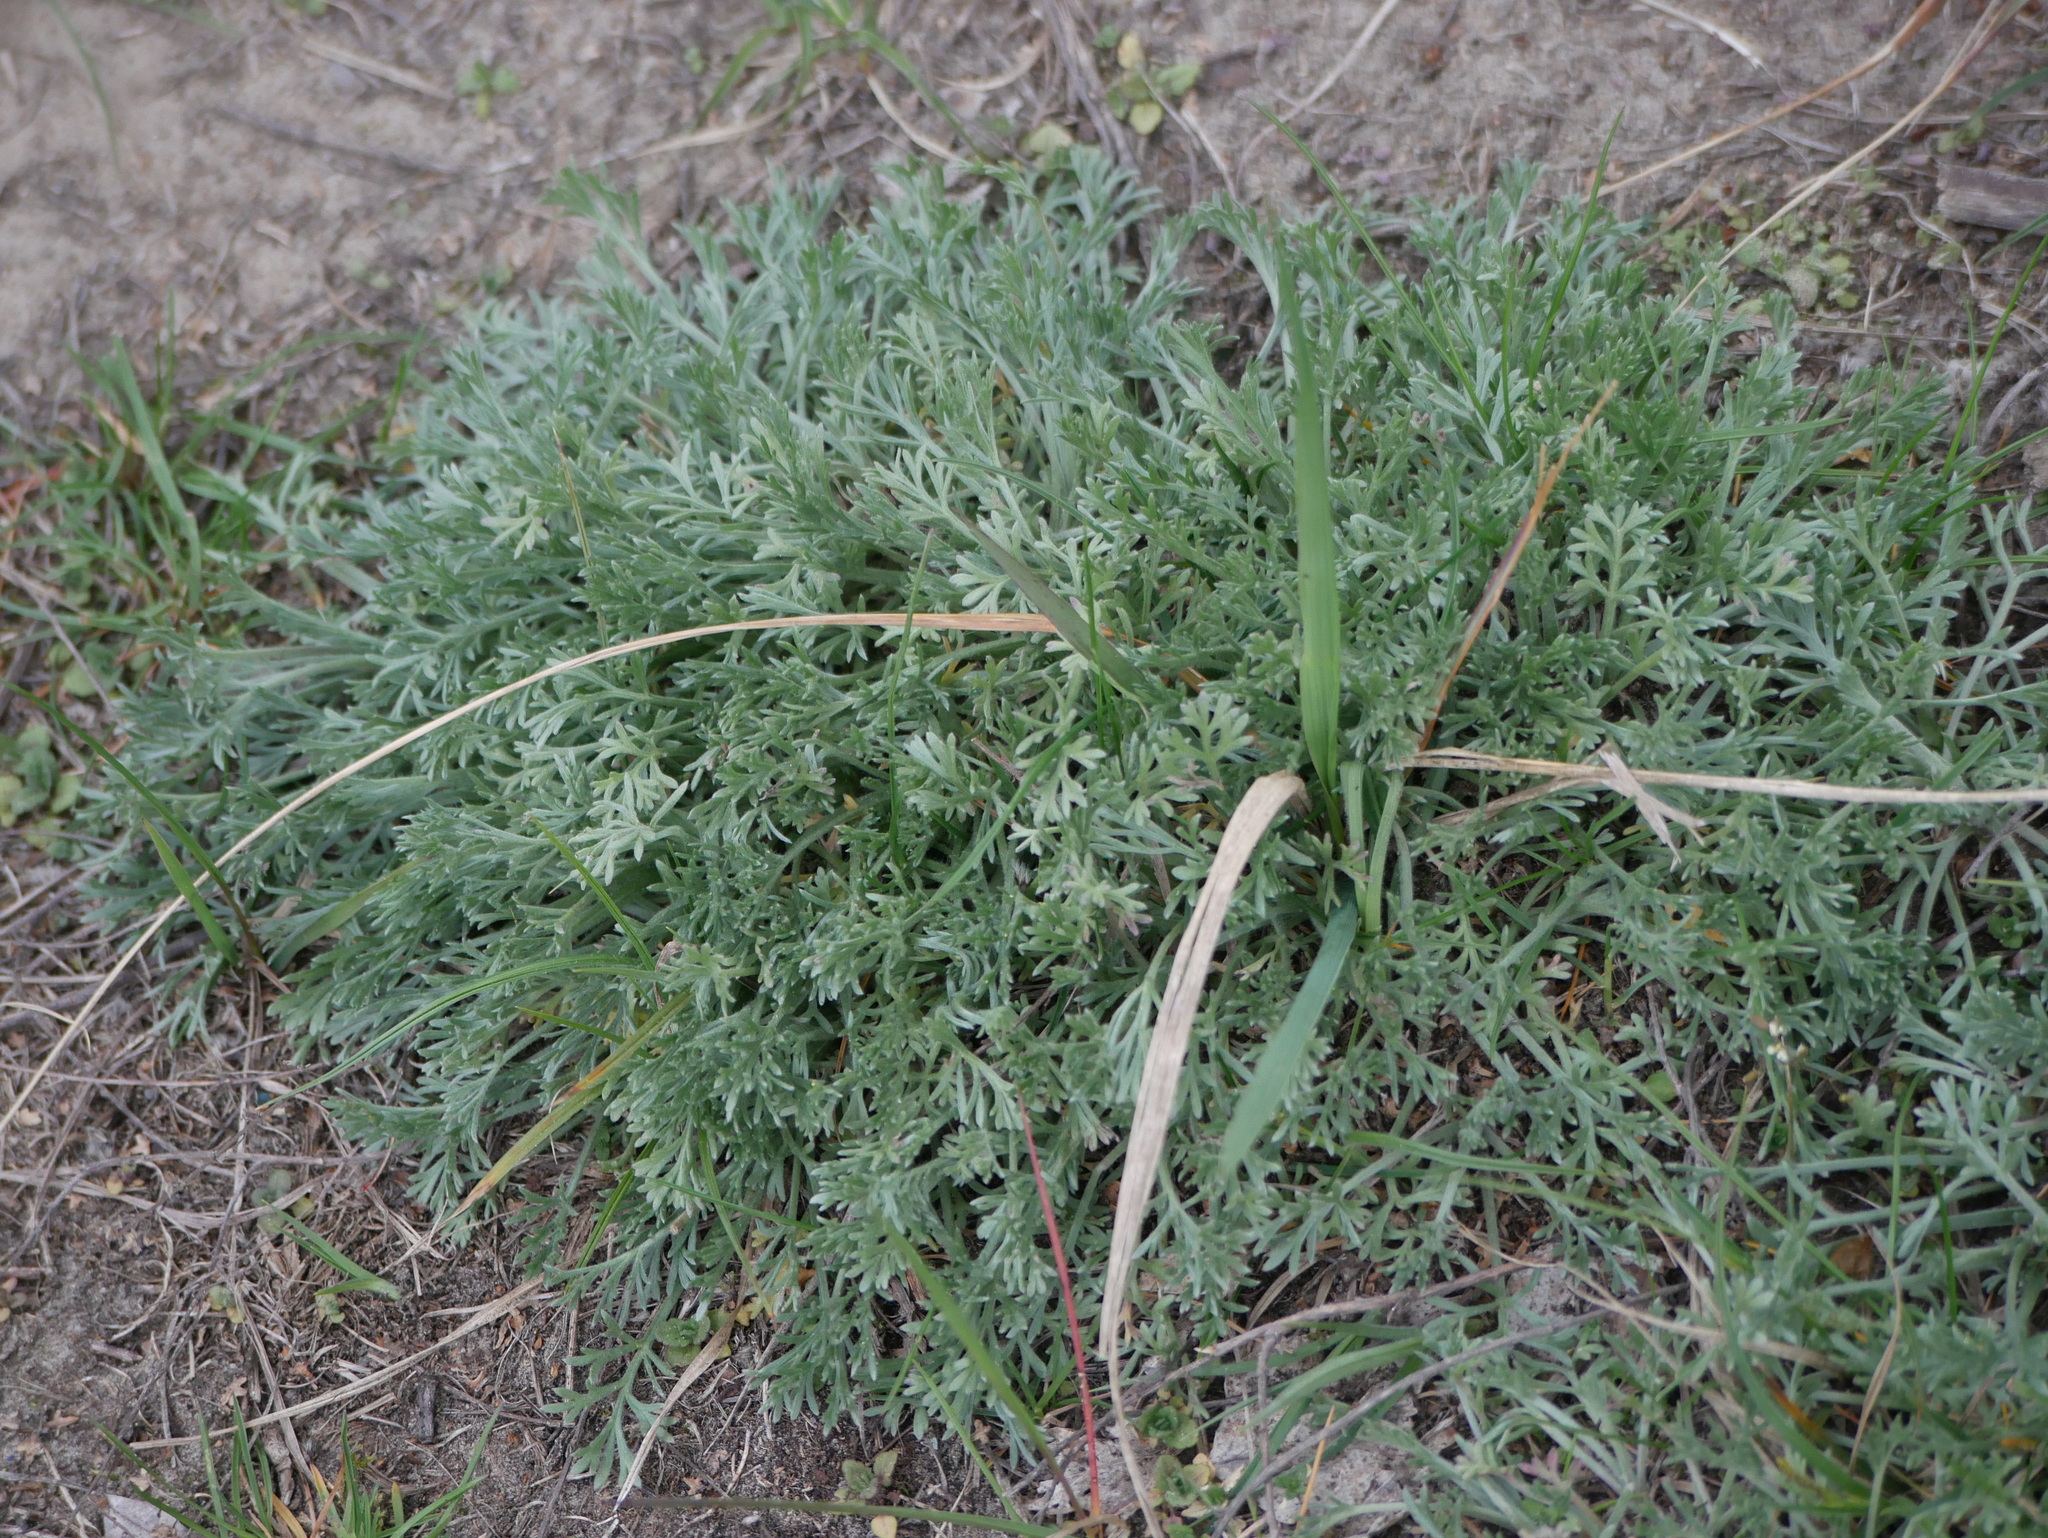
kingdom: Plantae
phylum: Tracheophyta
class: Magnoliopsida
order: Asterales
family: Asteraceae
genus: Artemisia
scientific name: Artemisia campestris
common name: Field wormwood
